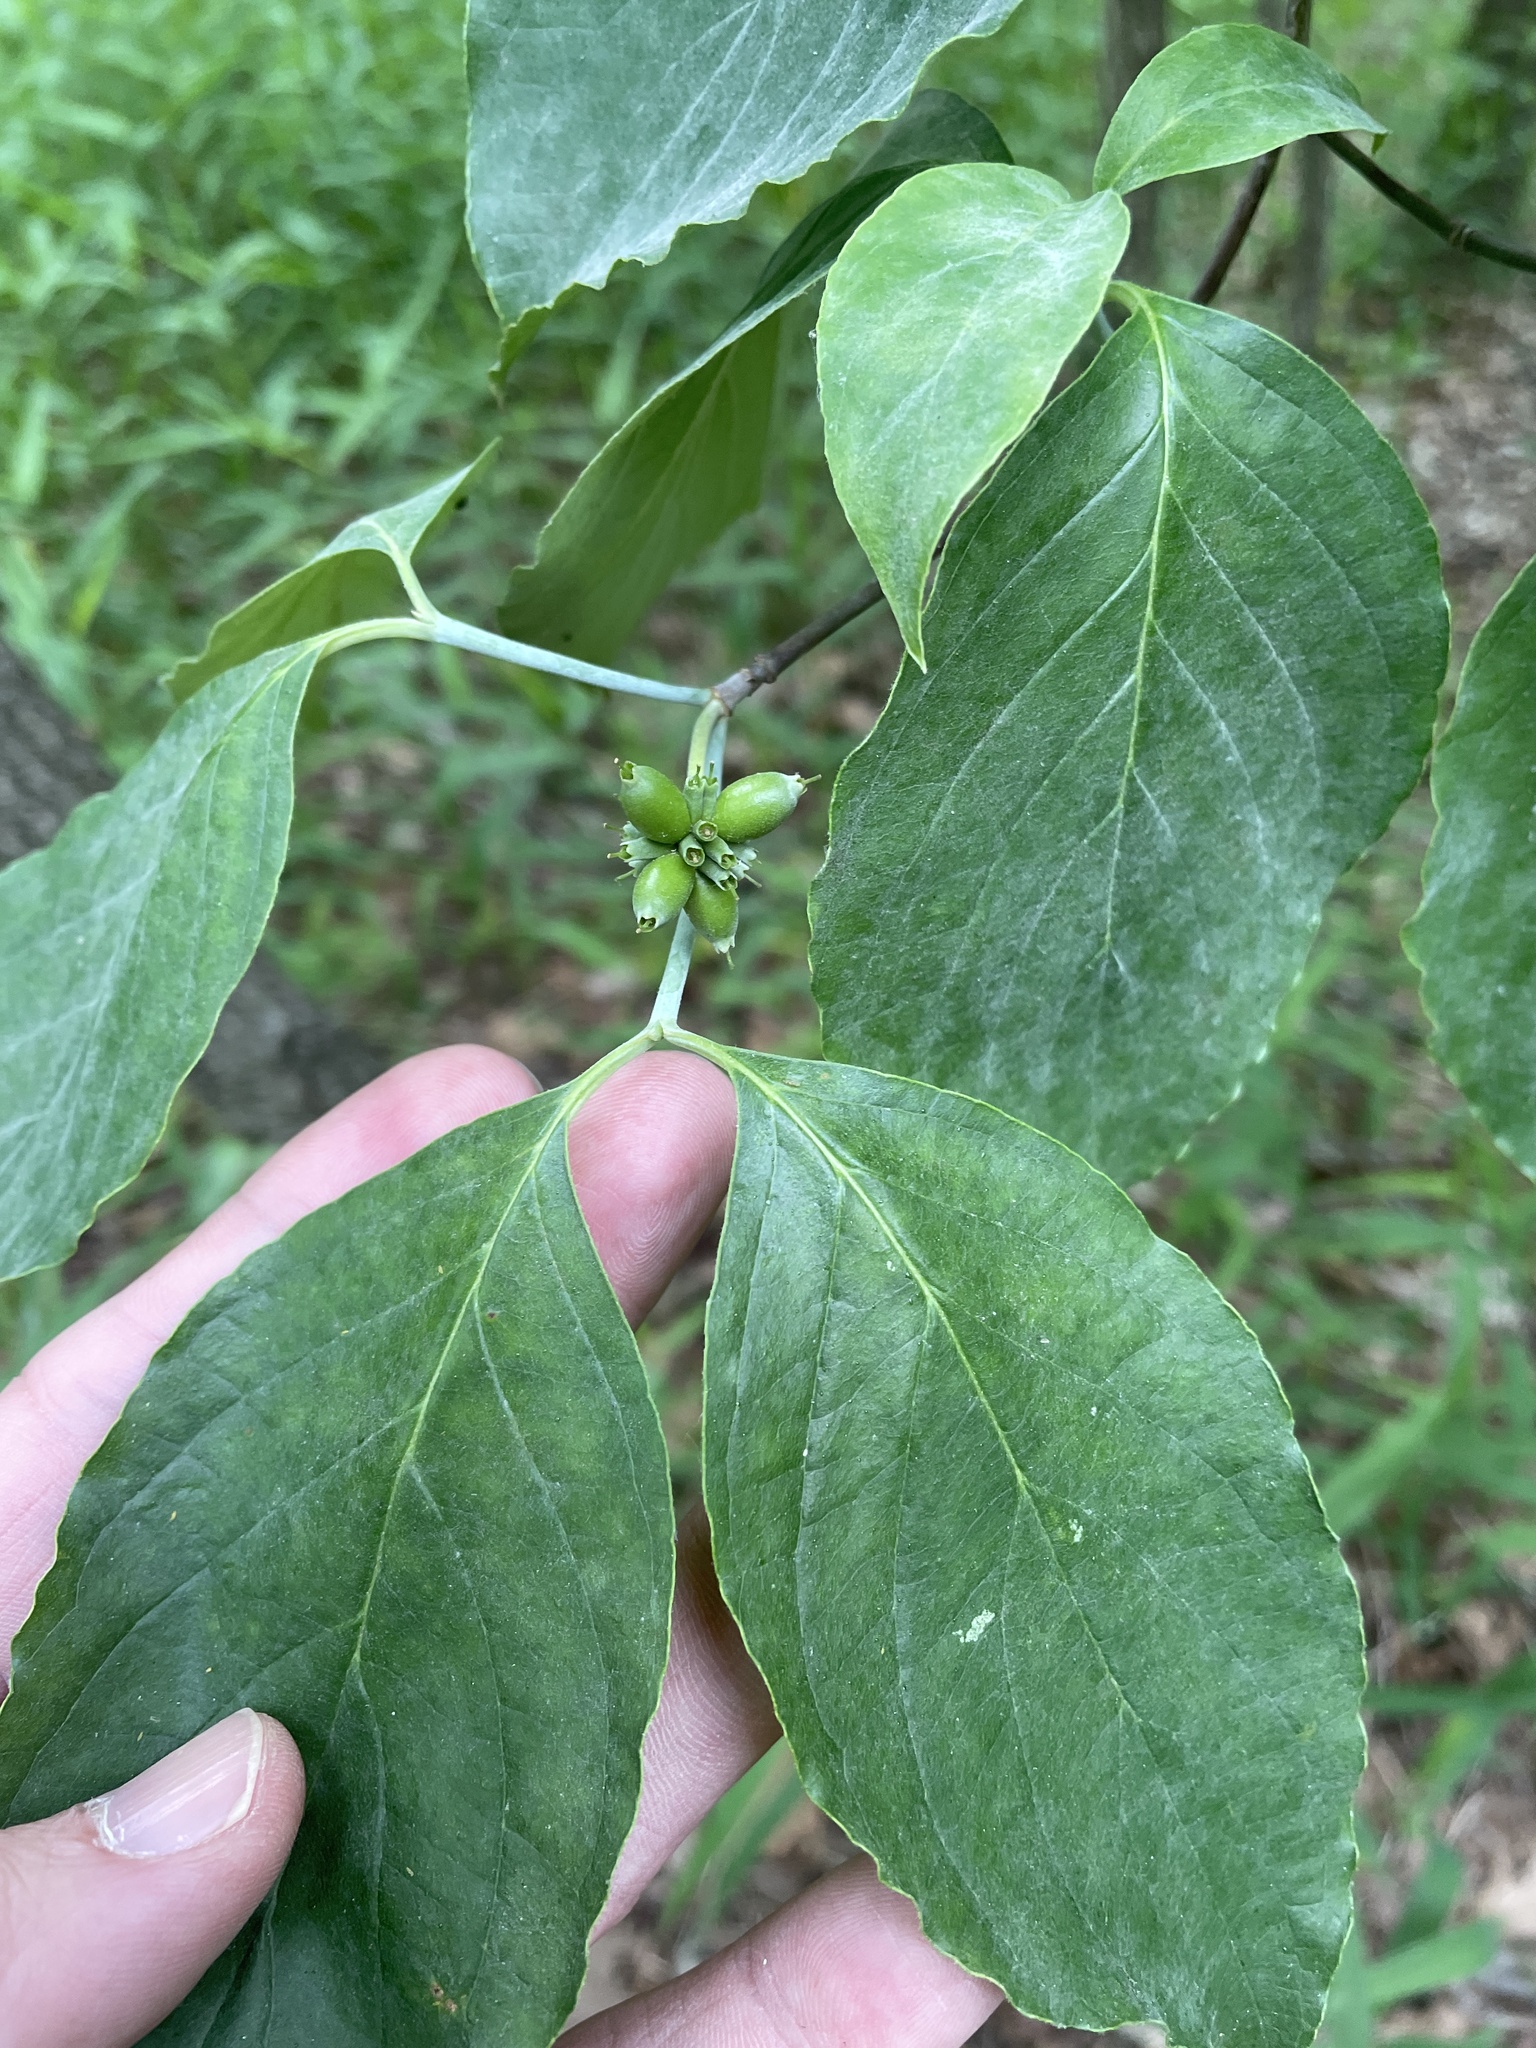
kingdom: Plantae
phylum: Tracheophyta
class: Magnoliopsida
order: Cornales
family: Cornaceae
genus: Cornus
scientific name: Cornus florida
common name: Flowering dogwood
